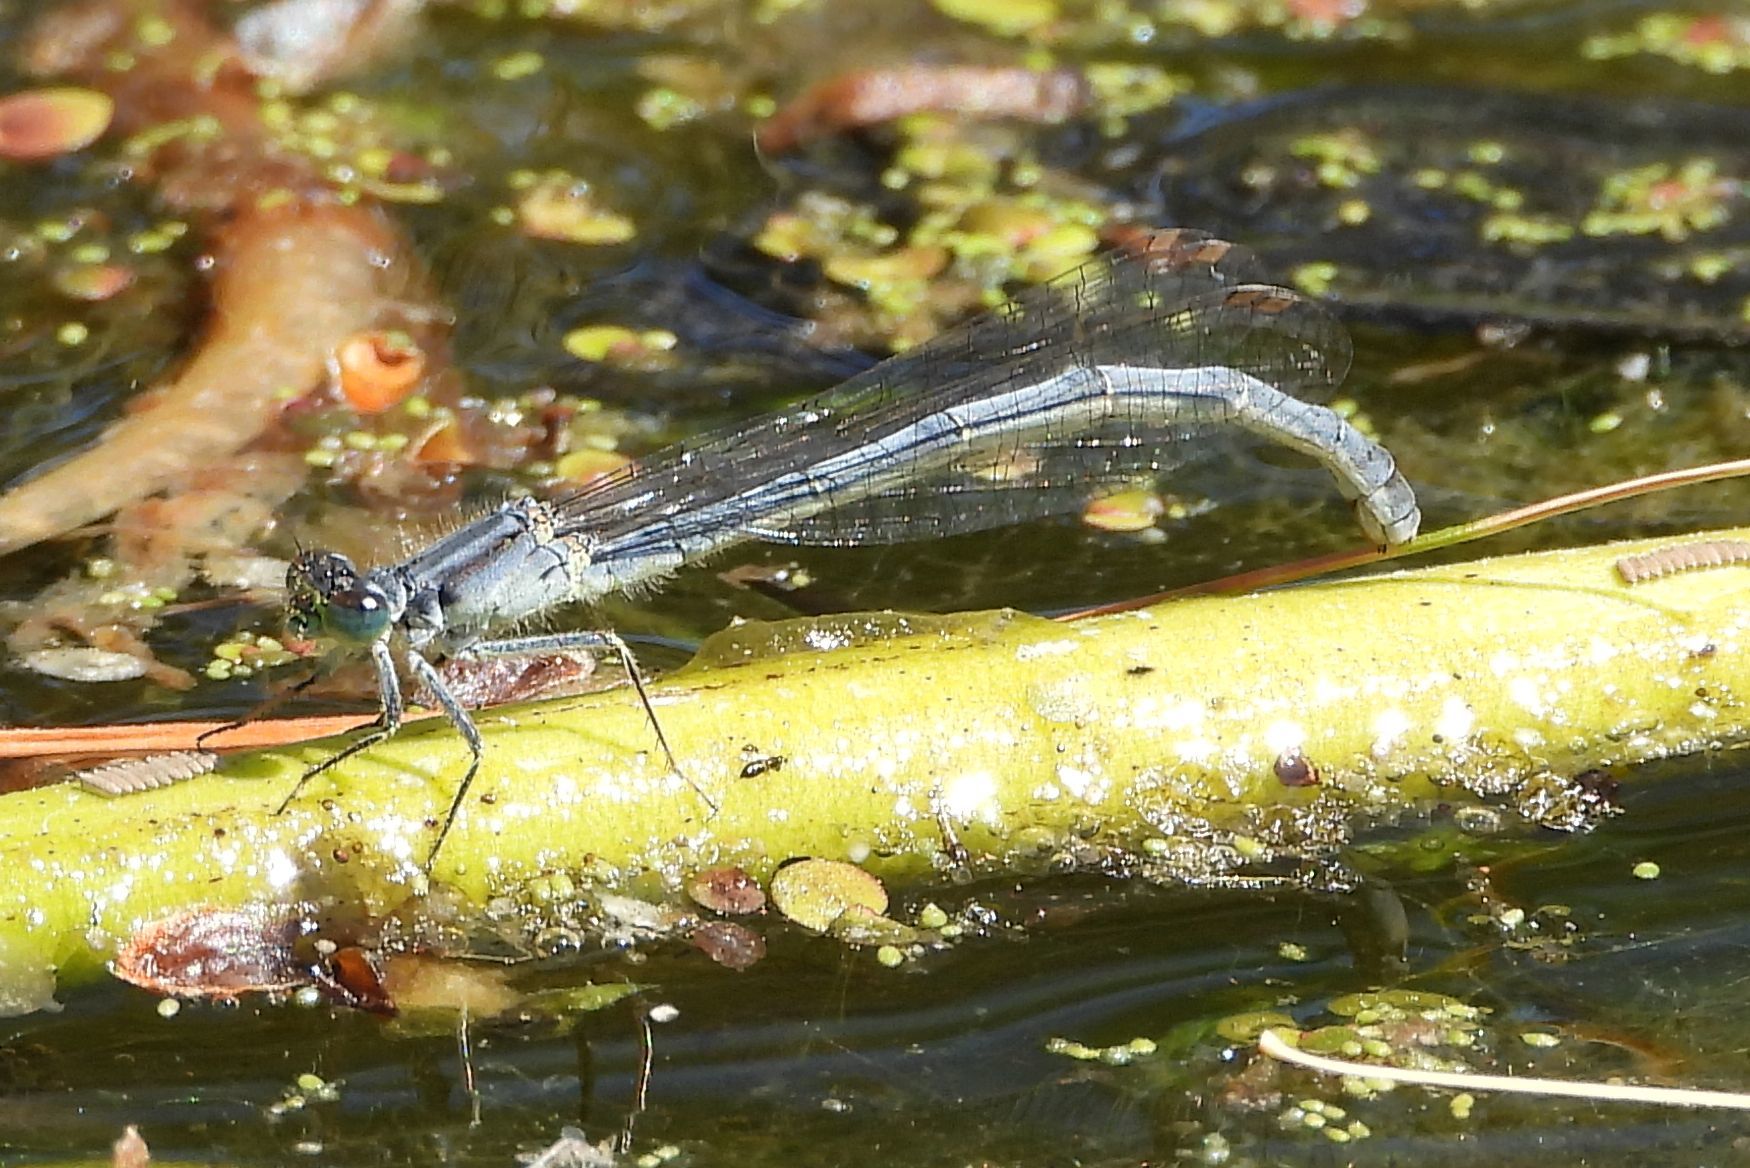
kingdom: Animalia
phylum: Arthropoda
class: Insecta
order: Odonata
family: Coenagrionidae
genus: Ischnura
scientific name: Ischnura verticalis
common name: Eastern forktail
